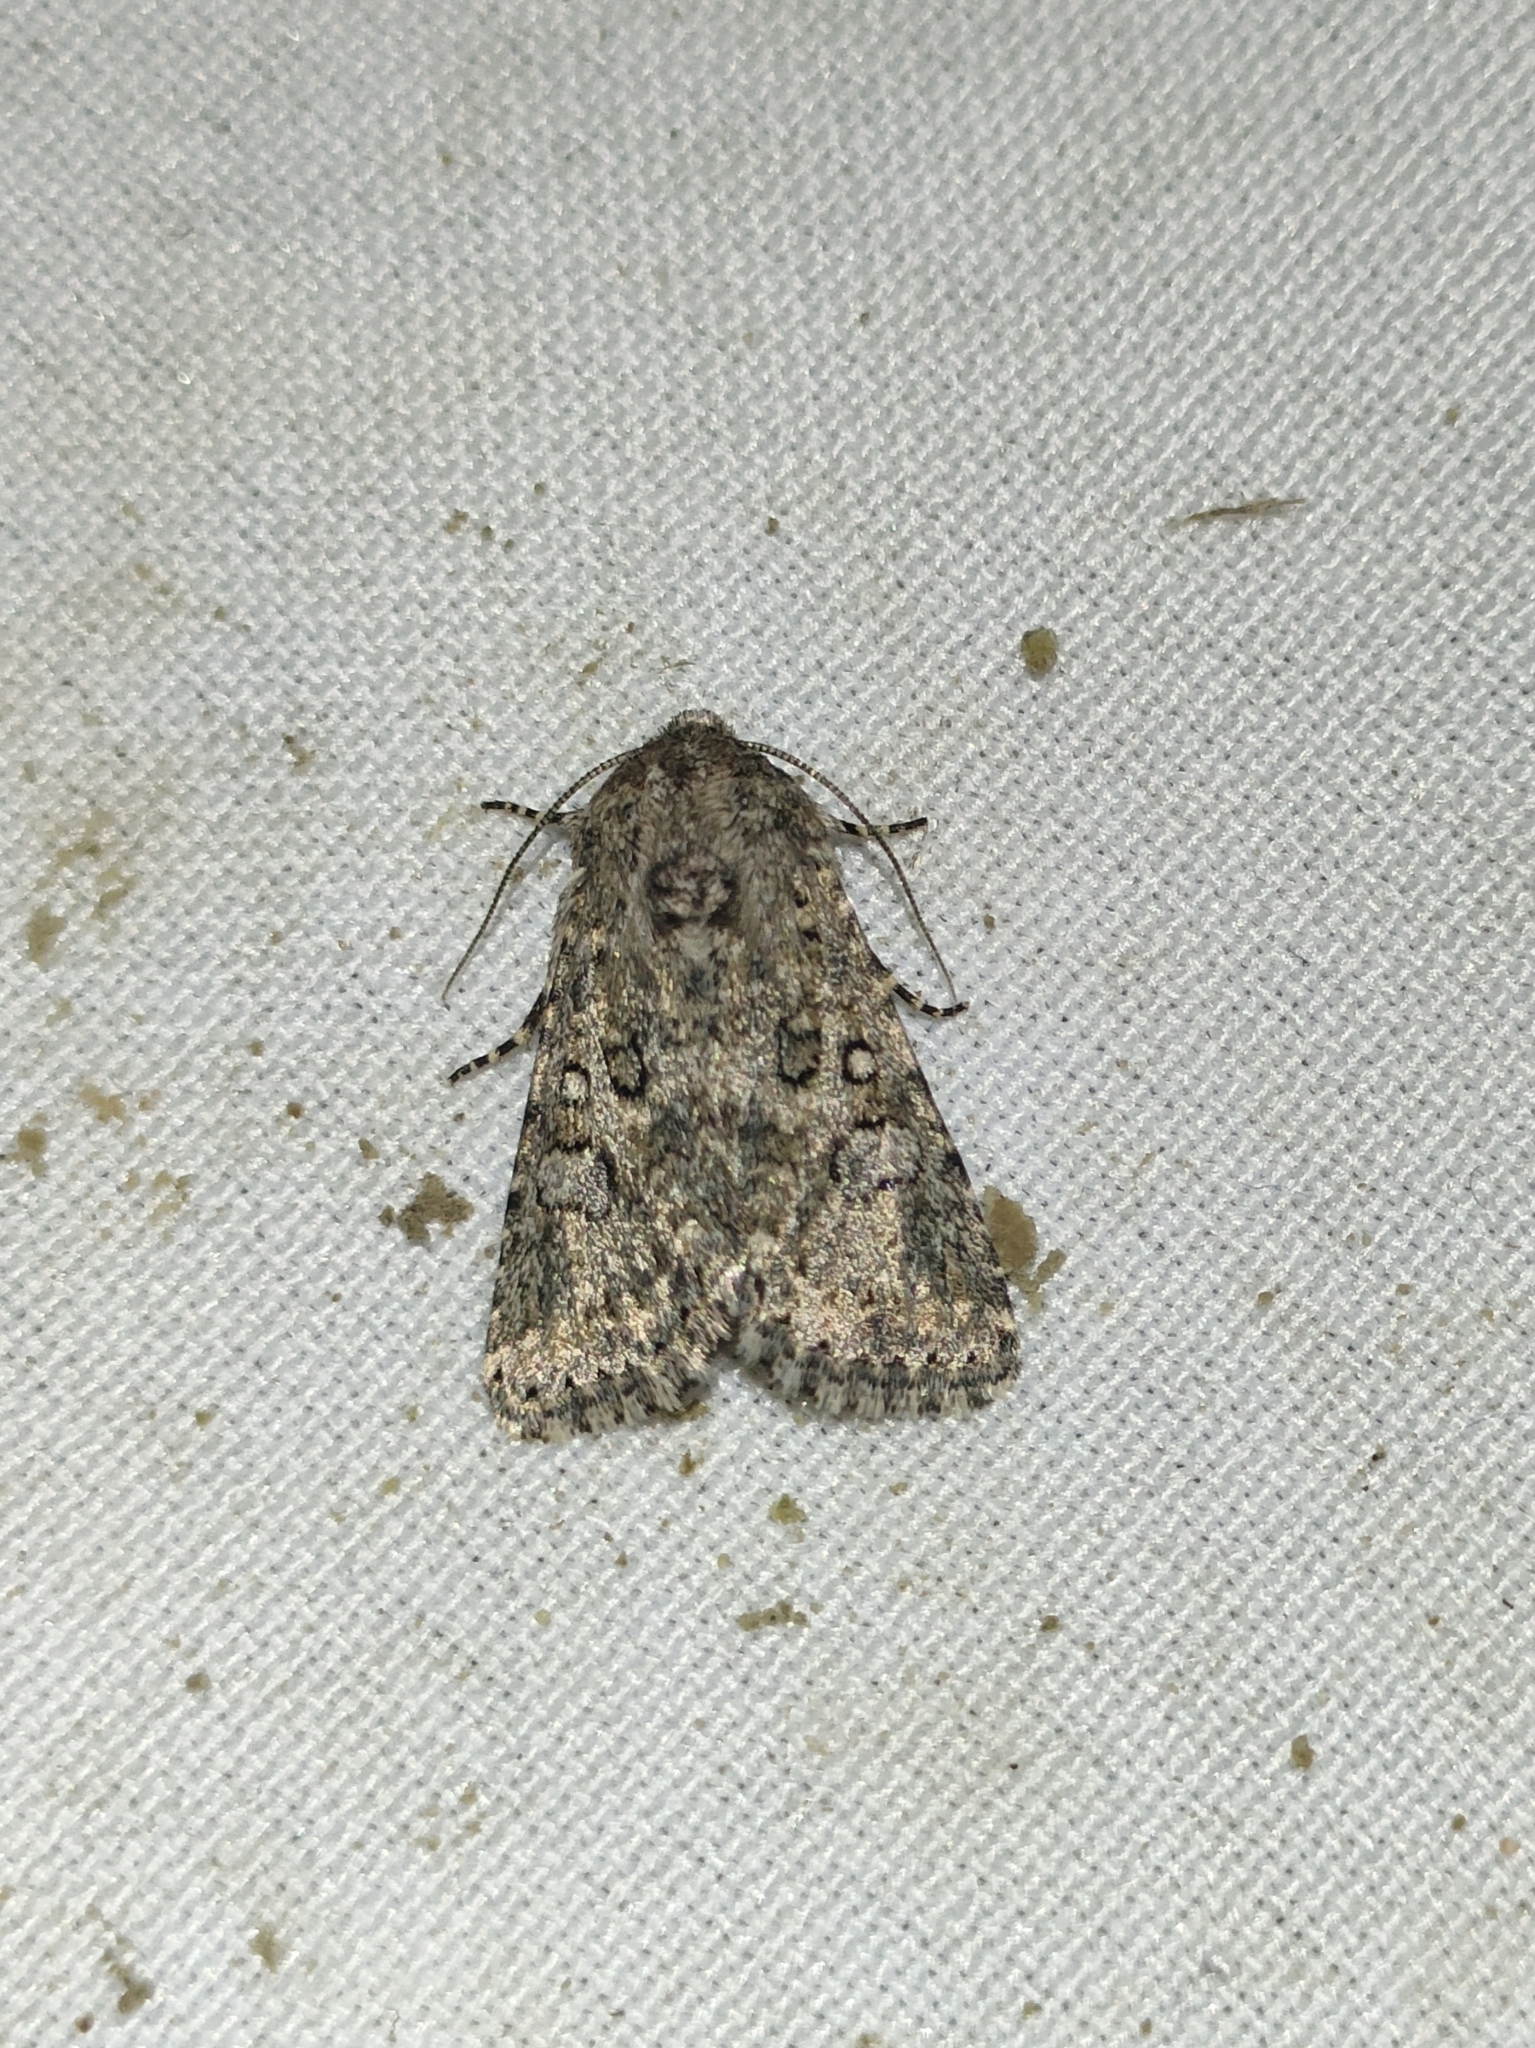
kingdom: Animalia
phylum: Arthropoda
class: Insecta
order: Lepidoptera
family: Noctuidae
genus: Cardepia
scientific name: Cardepia sociabilis
